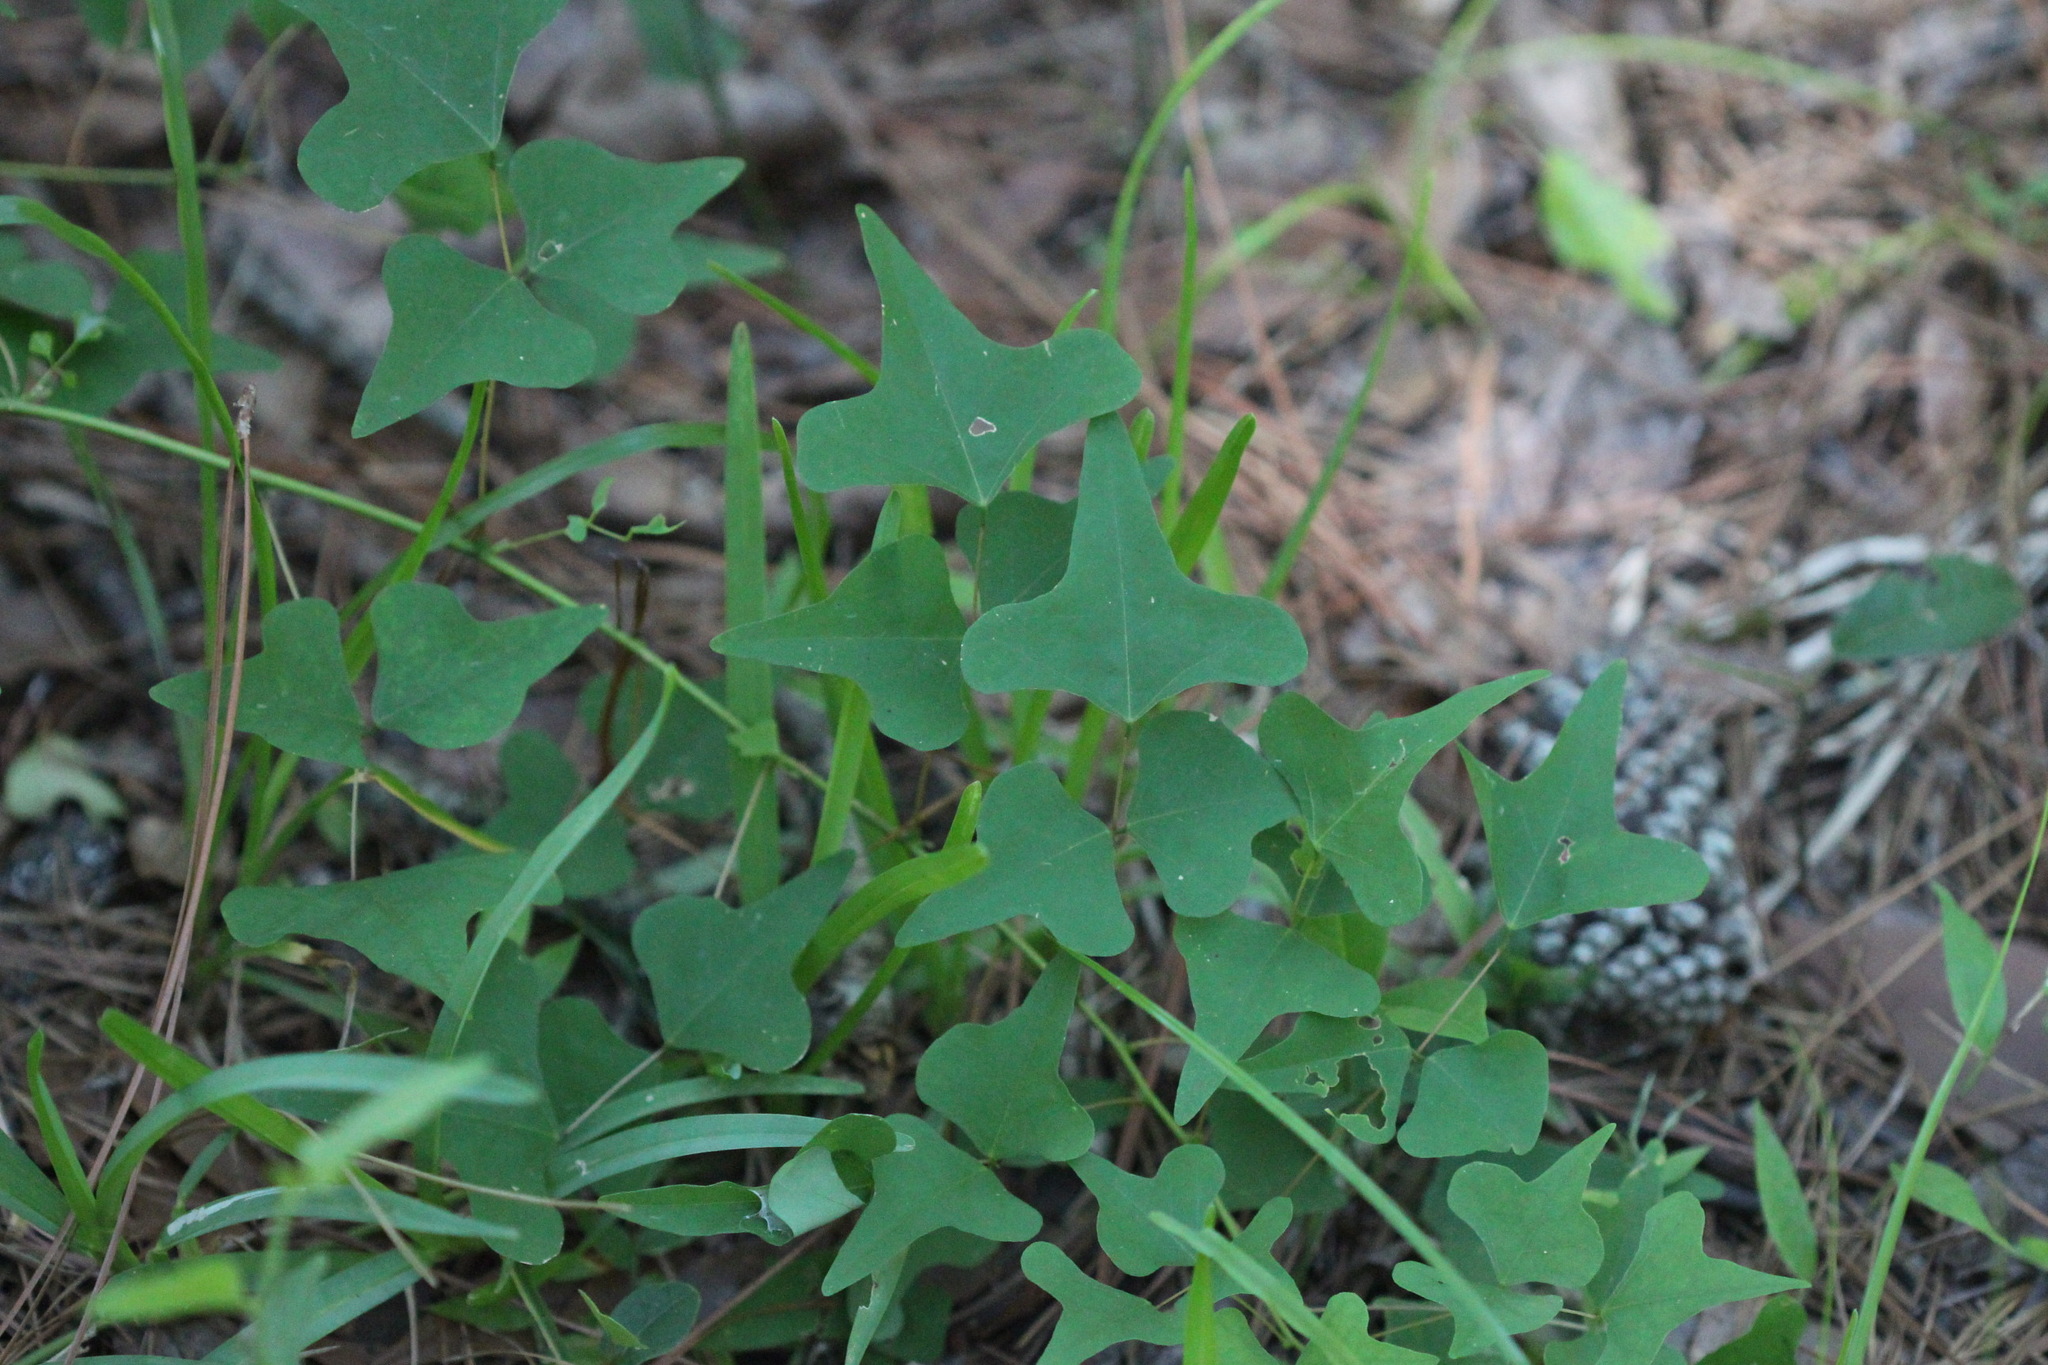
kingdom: Plantae
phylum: Tracheophyta
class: Magnoliopsida
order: Fabales
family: Fabaceae
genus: Erythrina
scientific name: Erythrina herbacea
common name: Coral-bean
